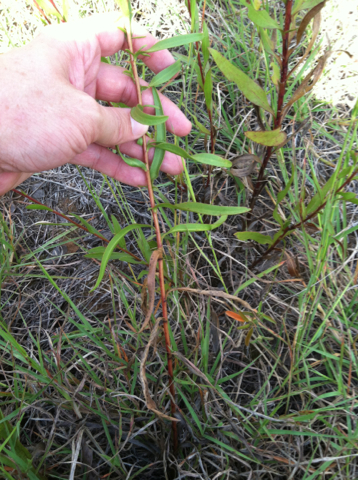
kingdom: Plantae
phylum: Tracheophyta
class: Magnoliopsida
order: Asterales
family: Asteraceae
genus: Solidago
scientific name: Solidago nitida
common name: Shiny goldenrod
